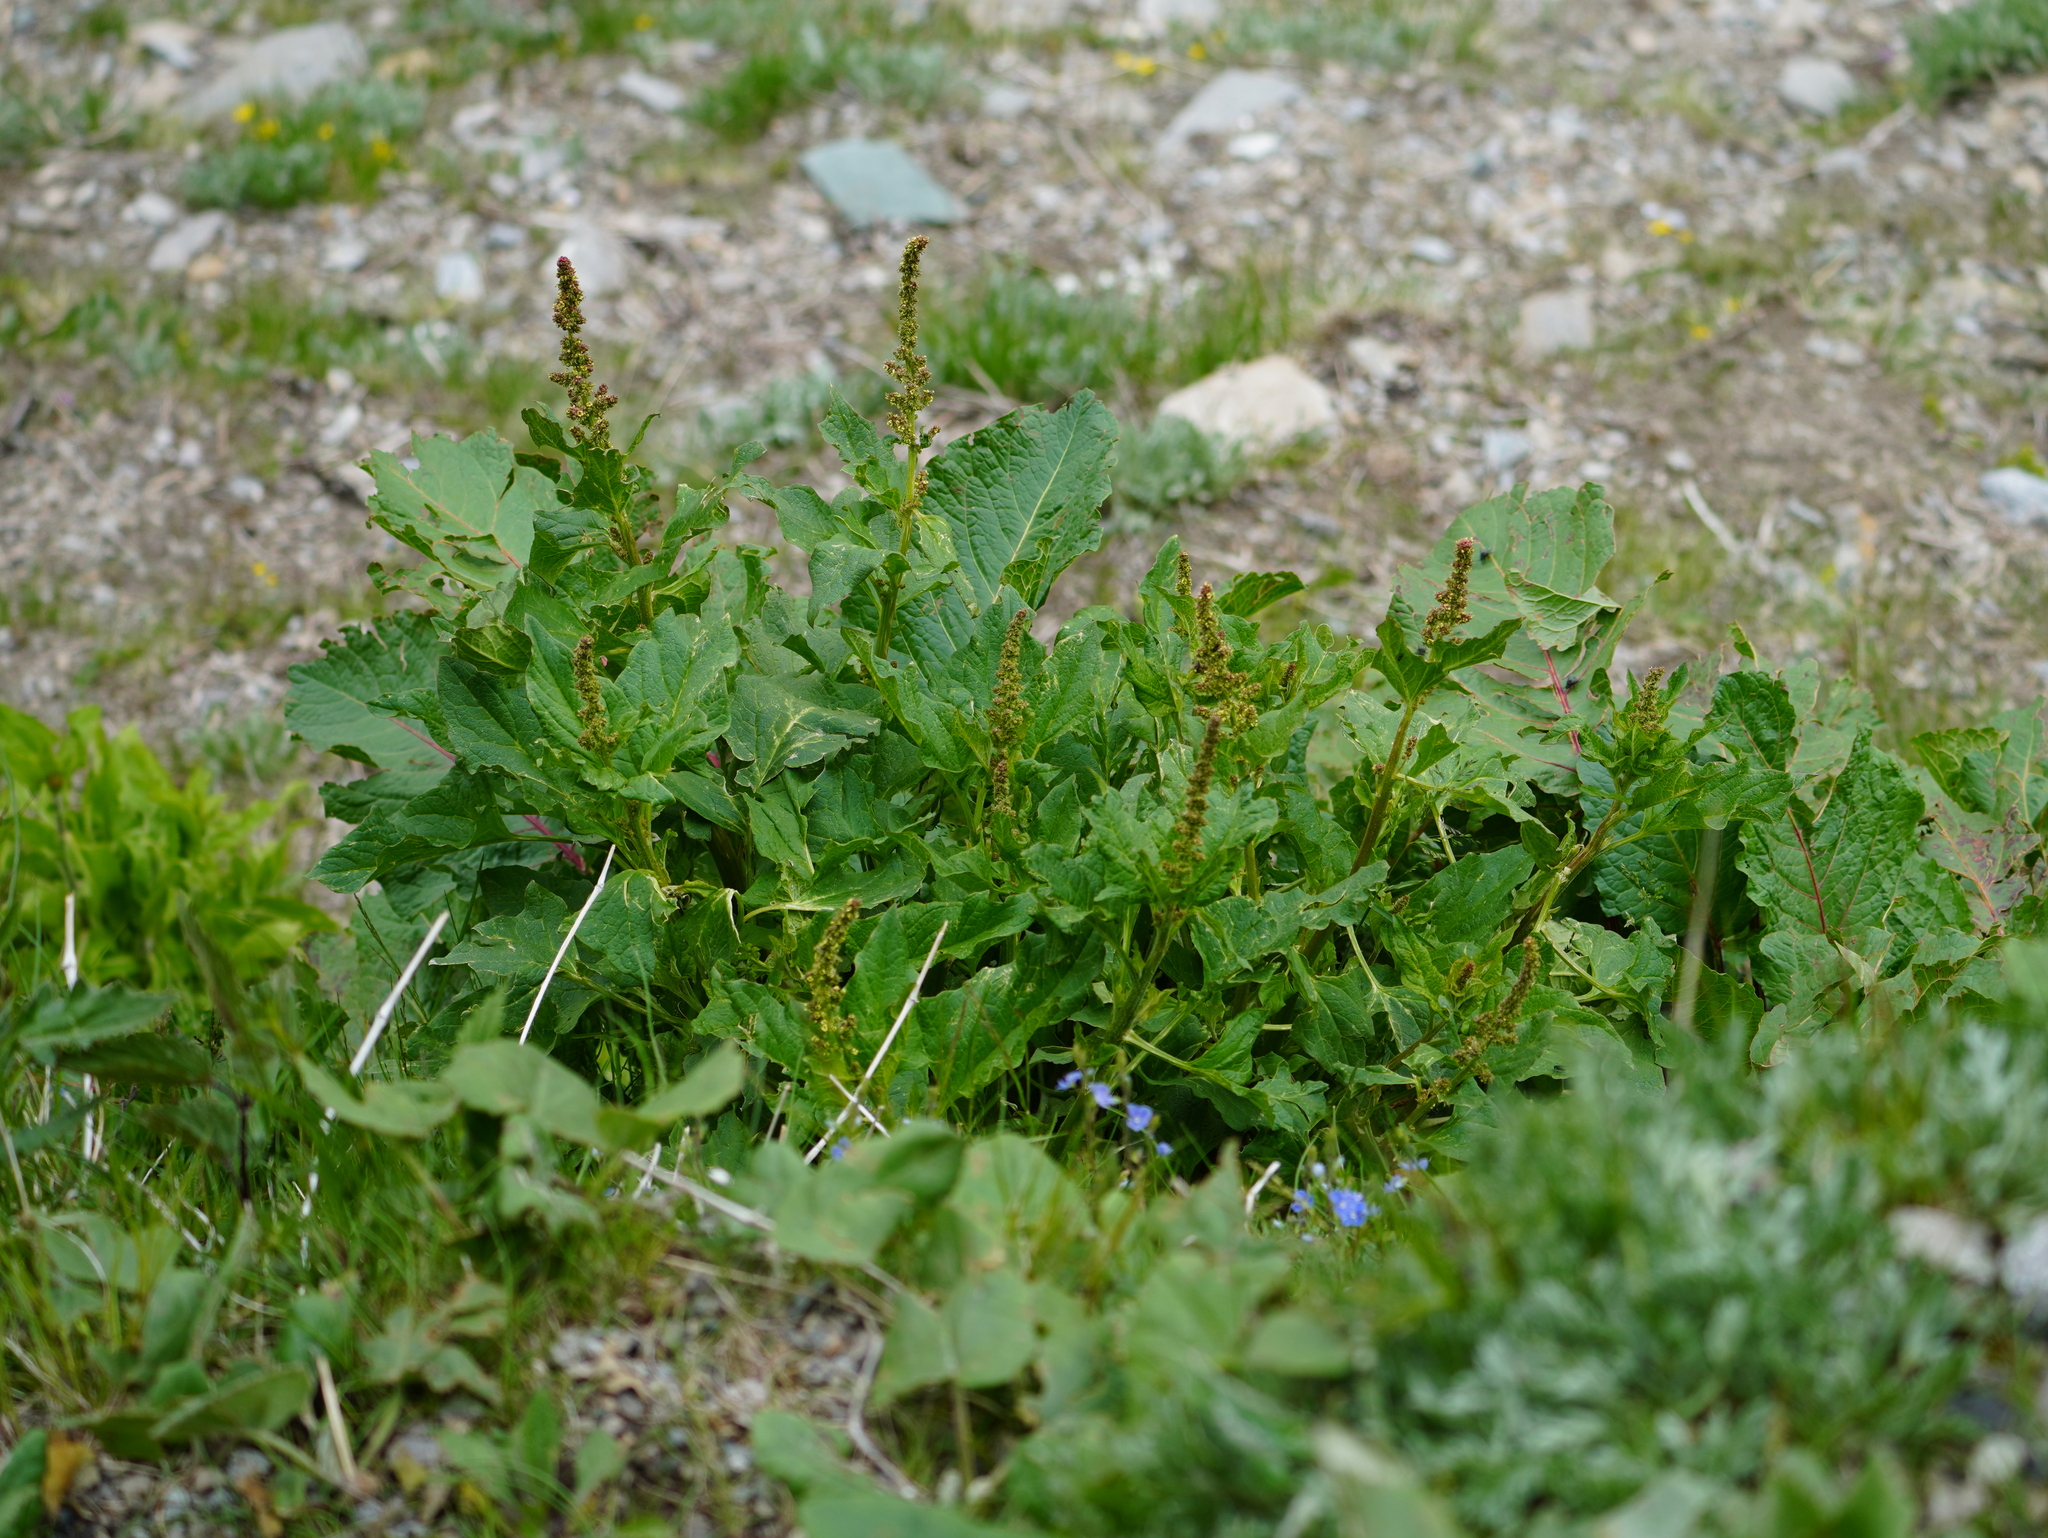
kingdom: Plantae
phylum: Tracheophyta
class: Magnoliopsida
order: Caryophyllales
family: Amaranthaceae
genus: Blitum
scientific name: Blitum bonus-henricus
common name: Good king henry
